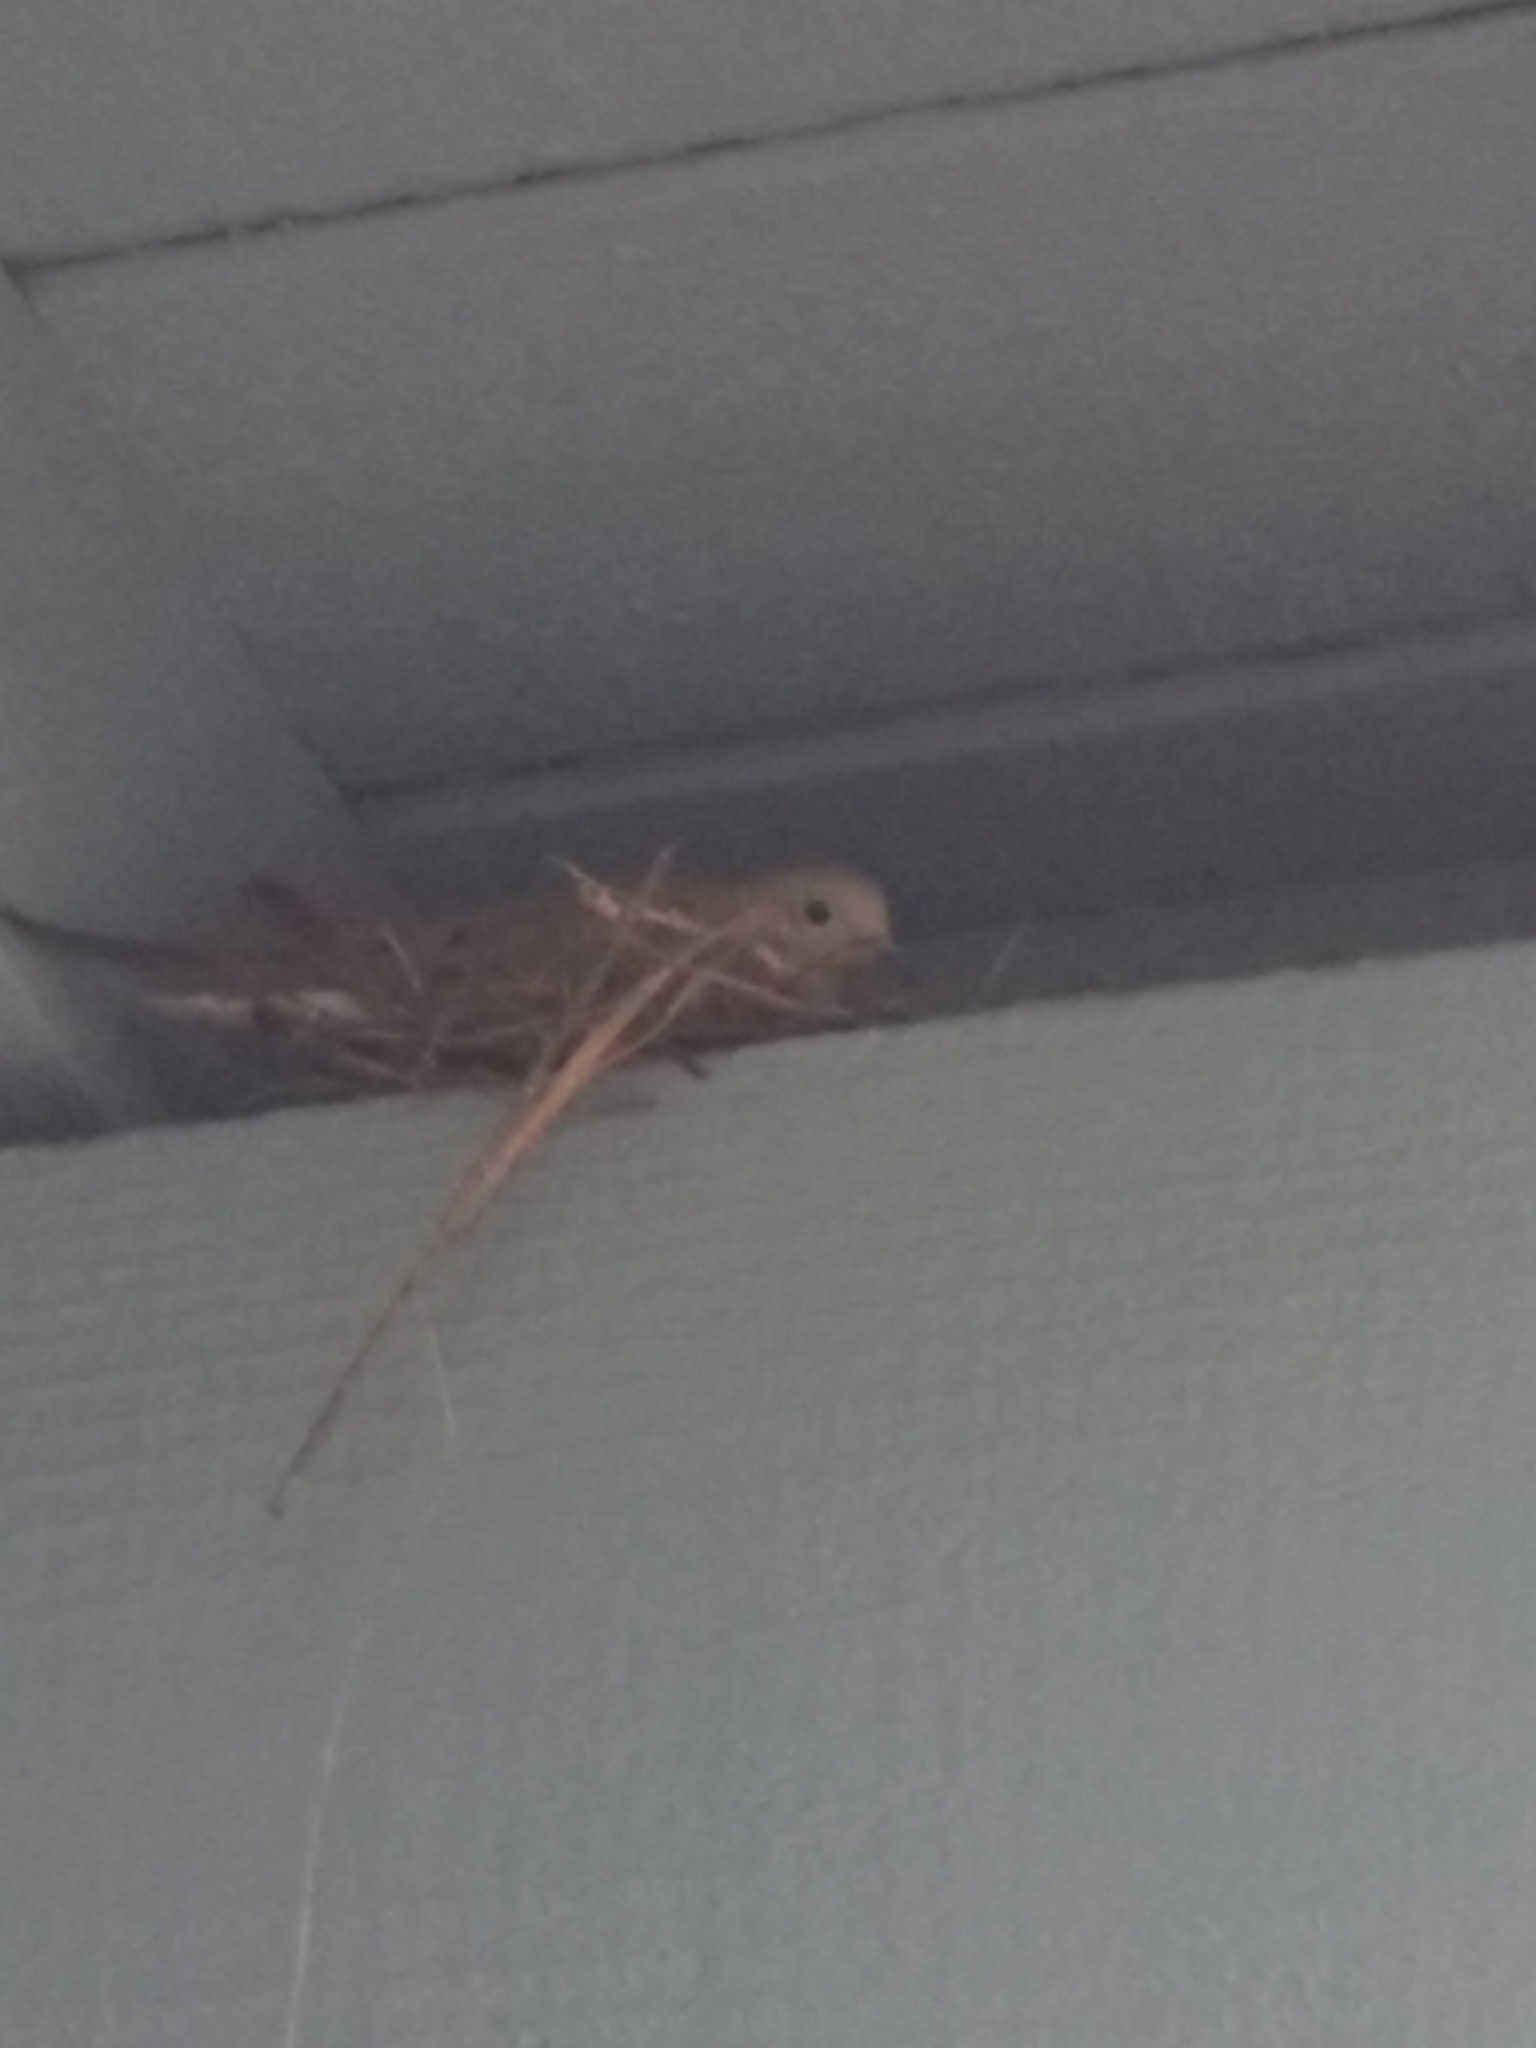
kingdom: Animalia
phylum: Chordata
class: Aves
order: Columbiformes
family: Columbidae
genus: Zenaida
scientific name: Zenaida macroura
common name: Mourning dove
